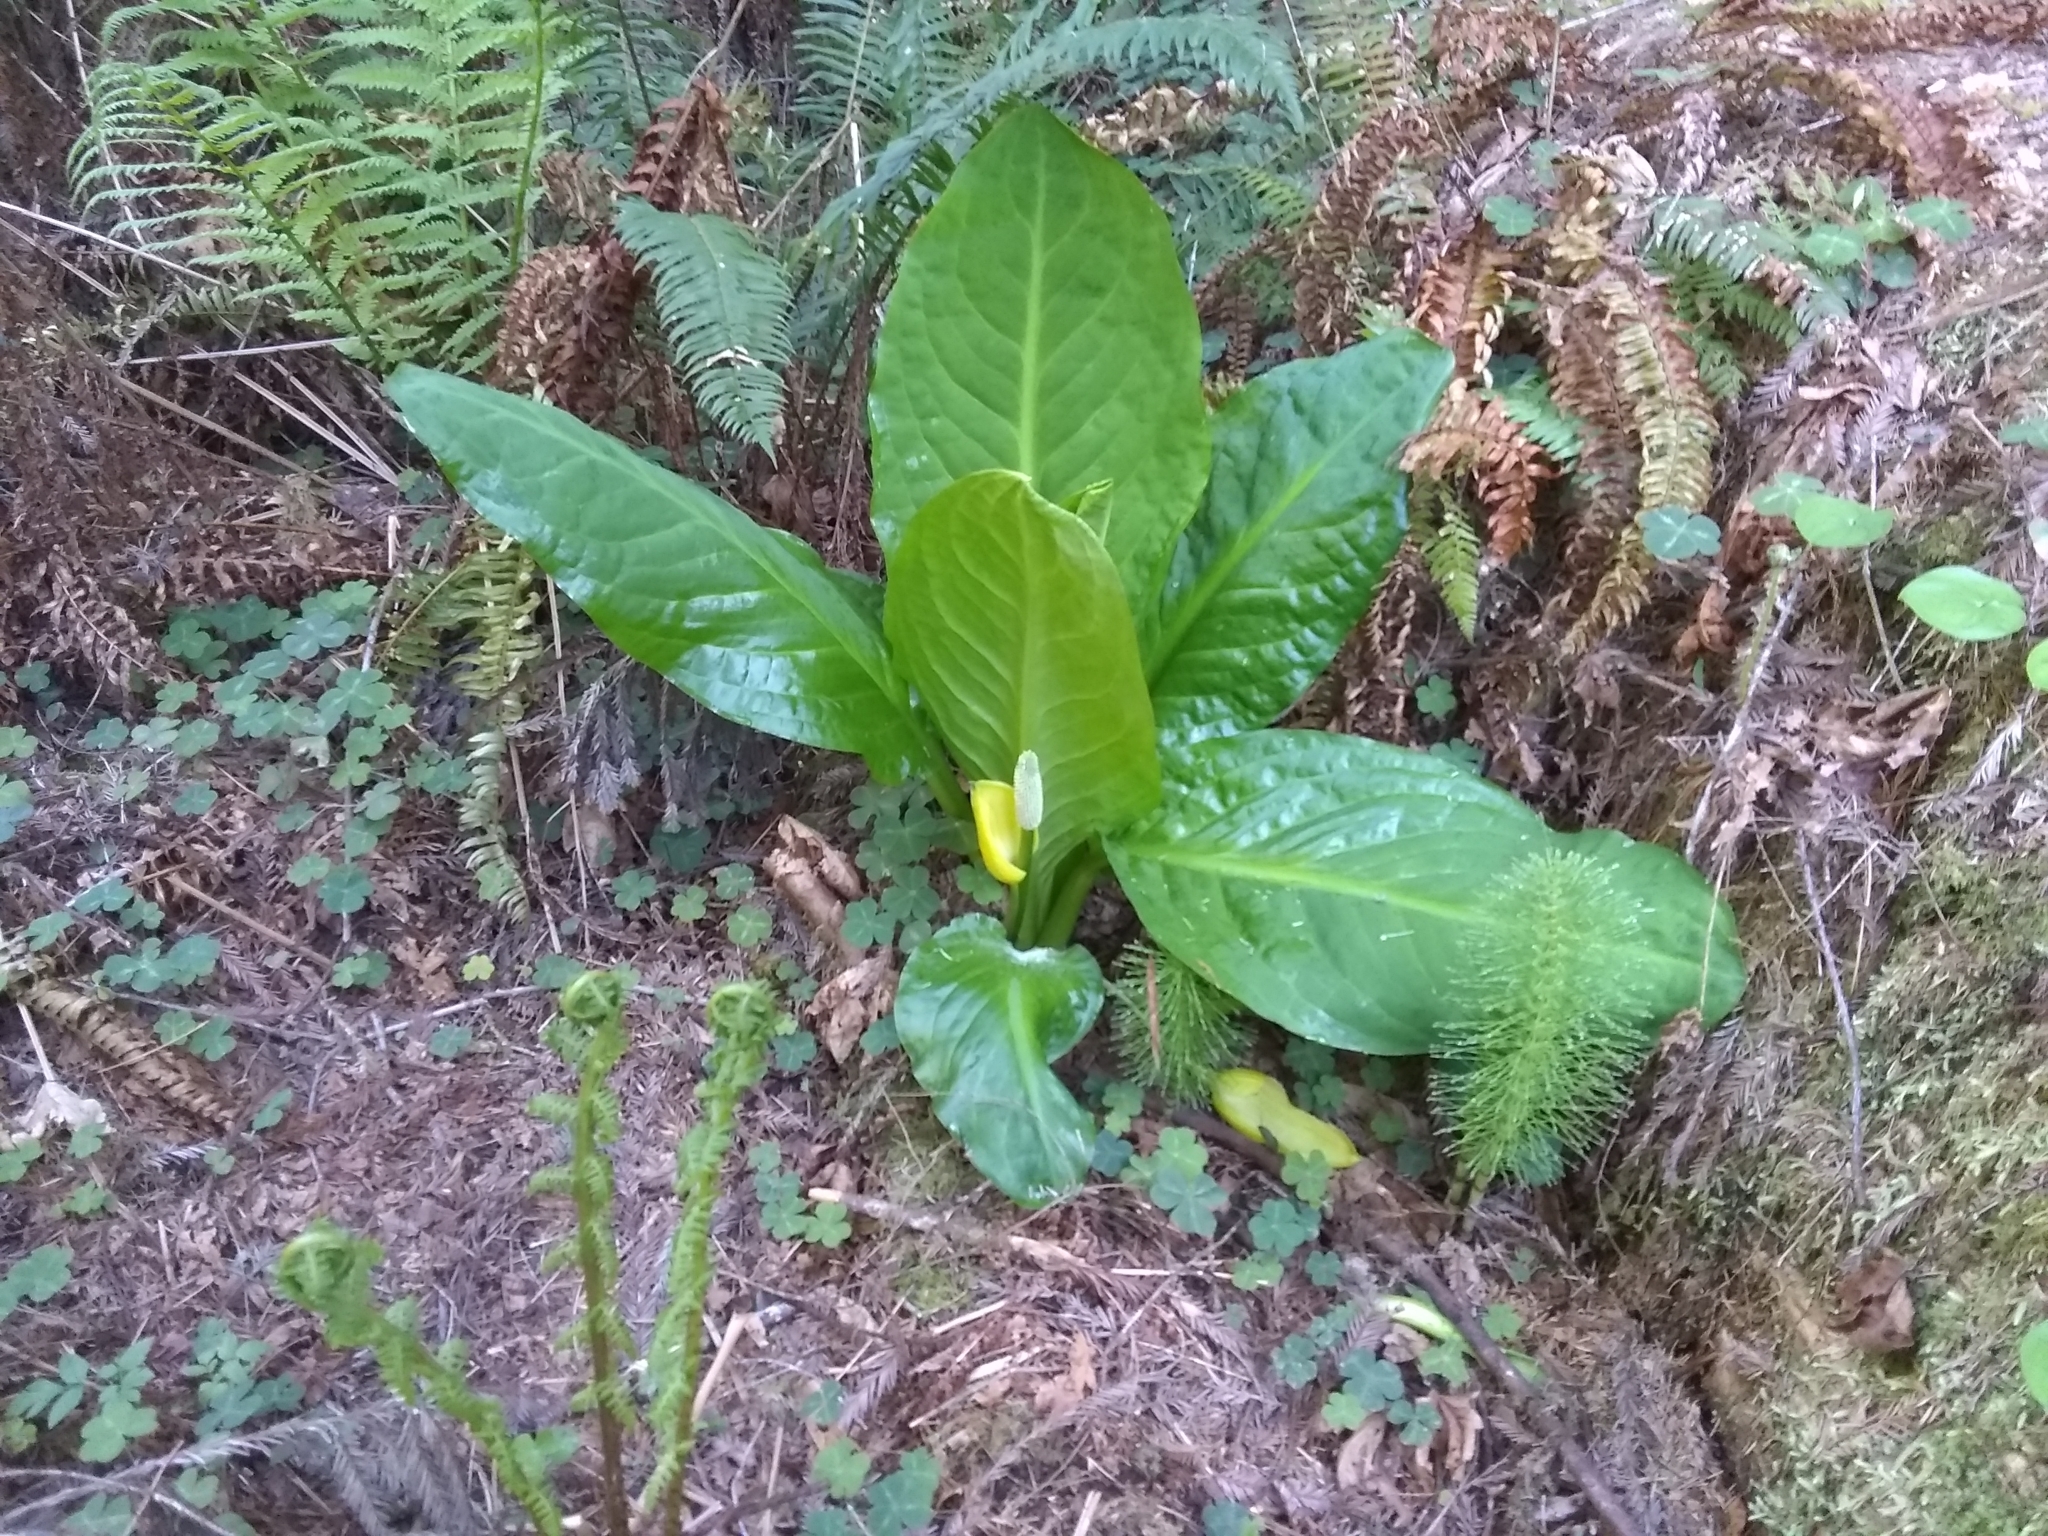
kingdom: Plantae
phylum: Tracheophyta
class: Liliopsida
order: Alismatales
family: Araceae
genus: Lysichiton
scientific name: Lysichiton americanus
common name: American skunk cabbage
